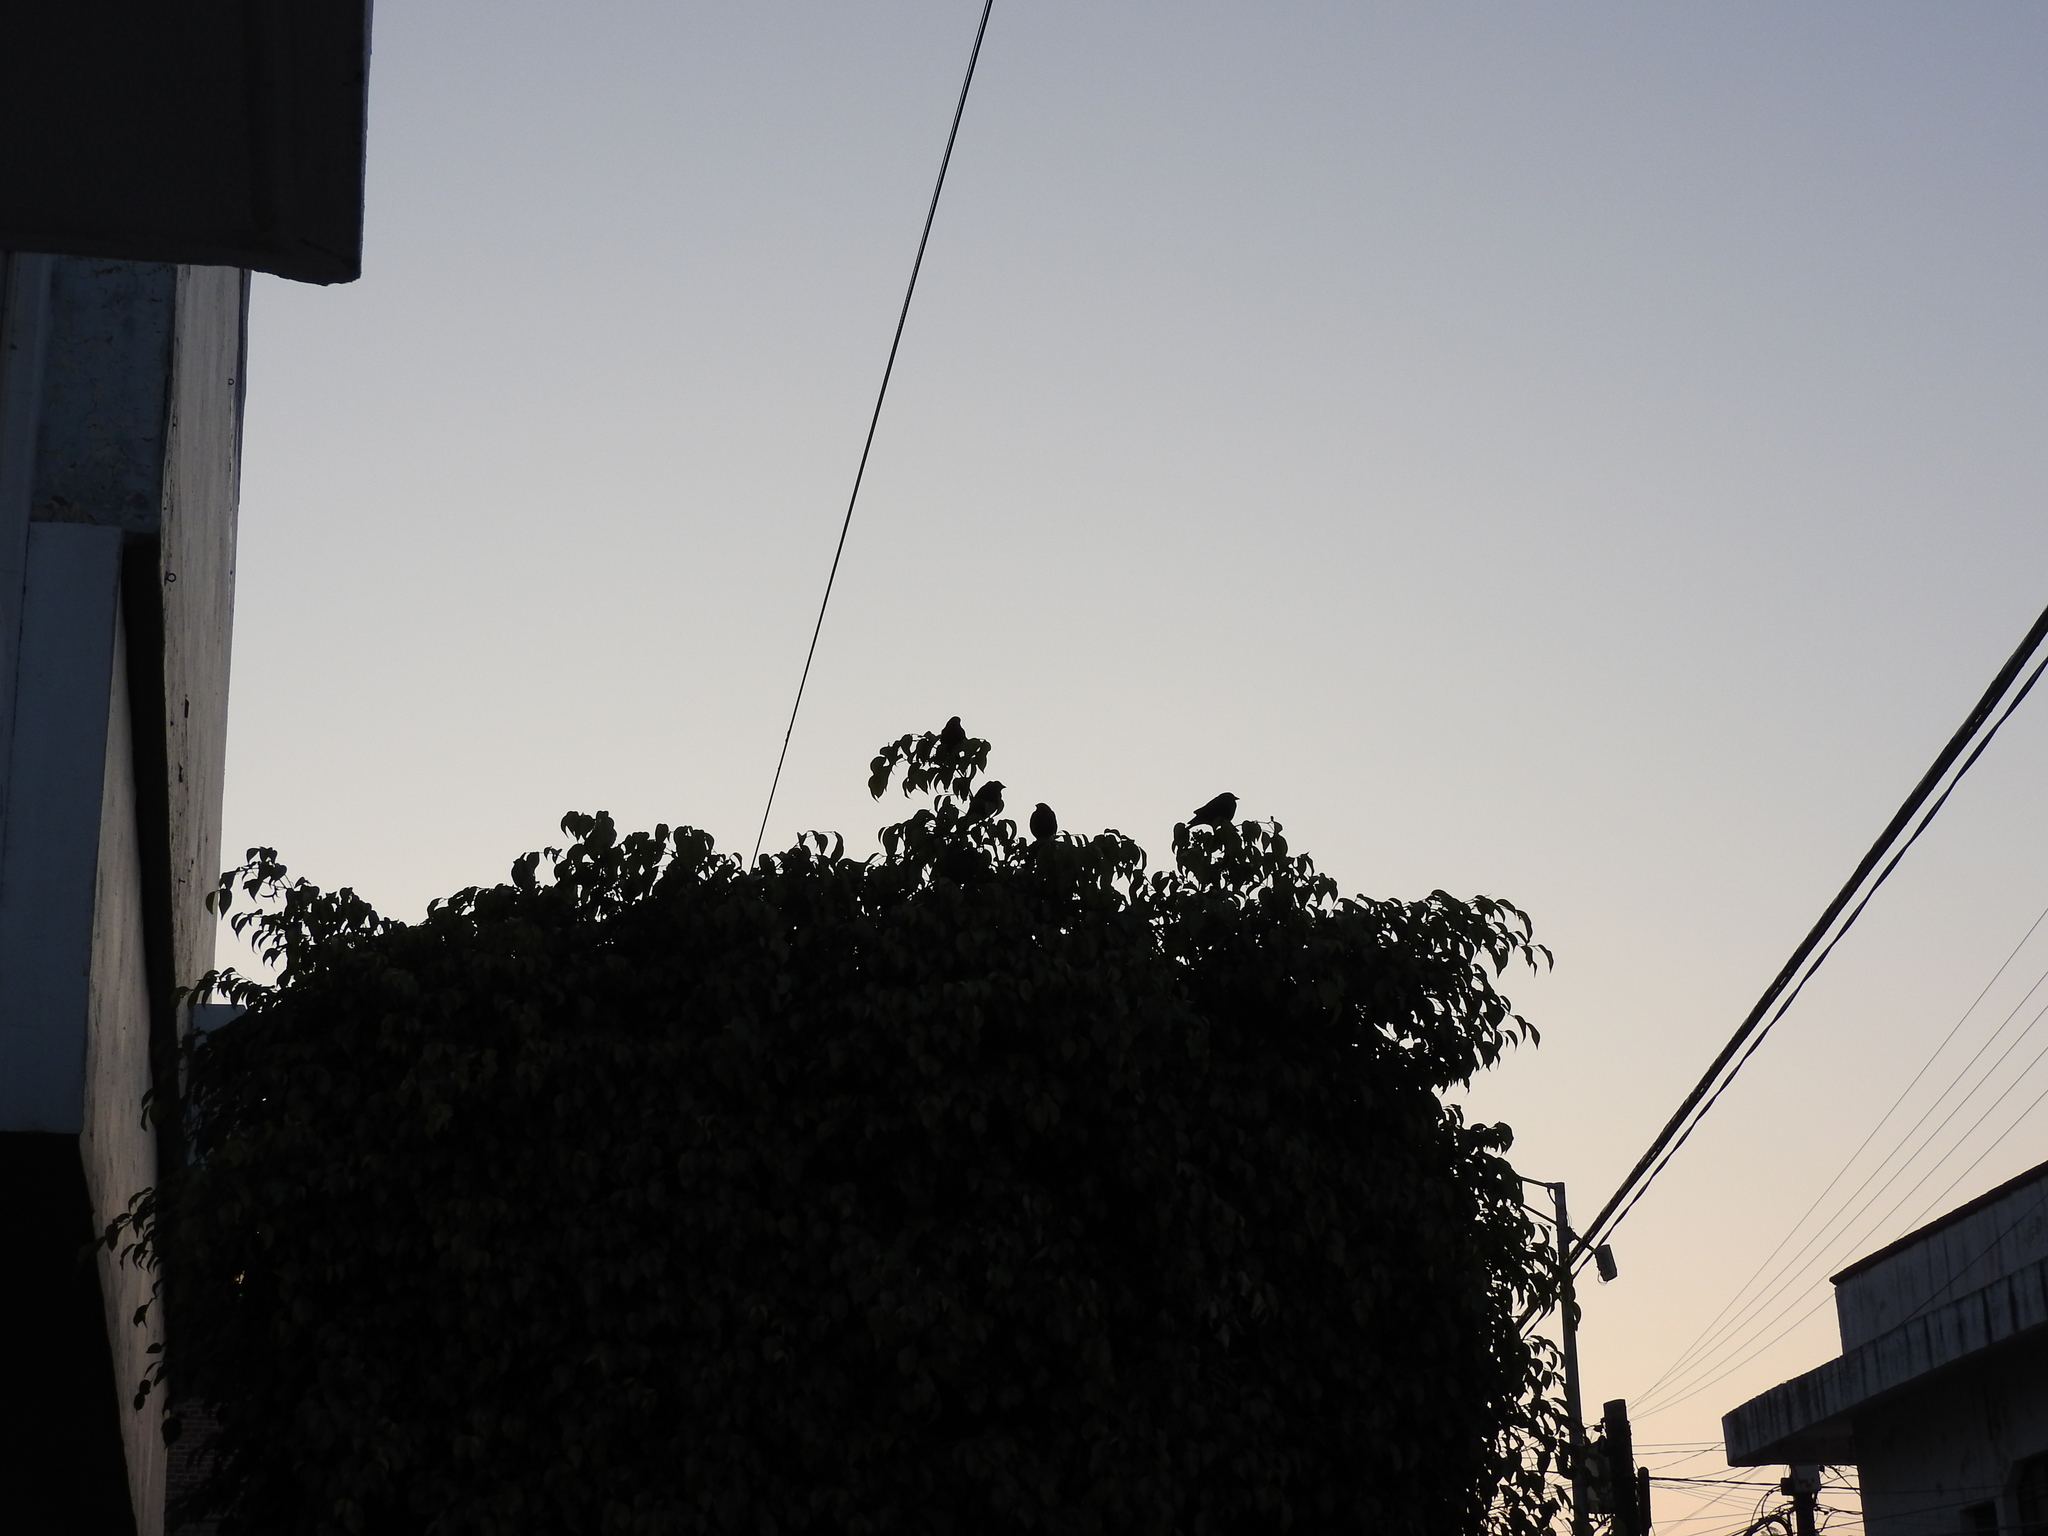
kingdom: Animalia
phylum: Chordata
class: Aves
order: Passeriformes
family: Icteridae
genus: Molothrus
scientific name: Molothrus aeneus
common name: Bronzed cowbird
